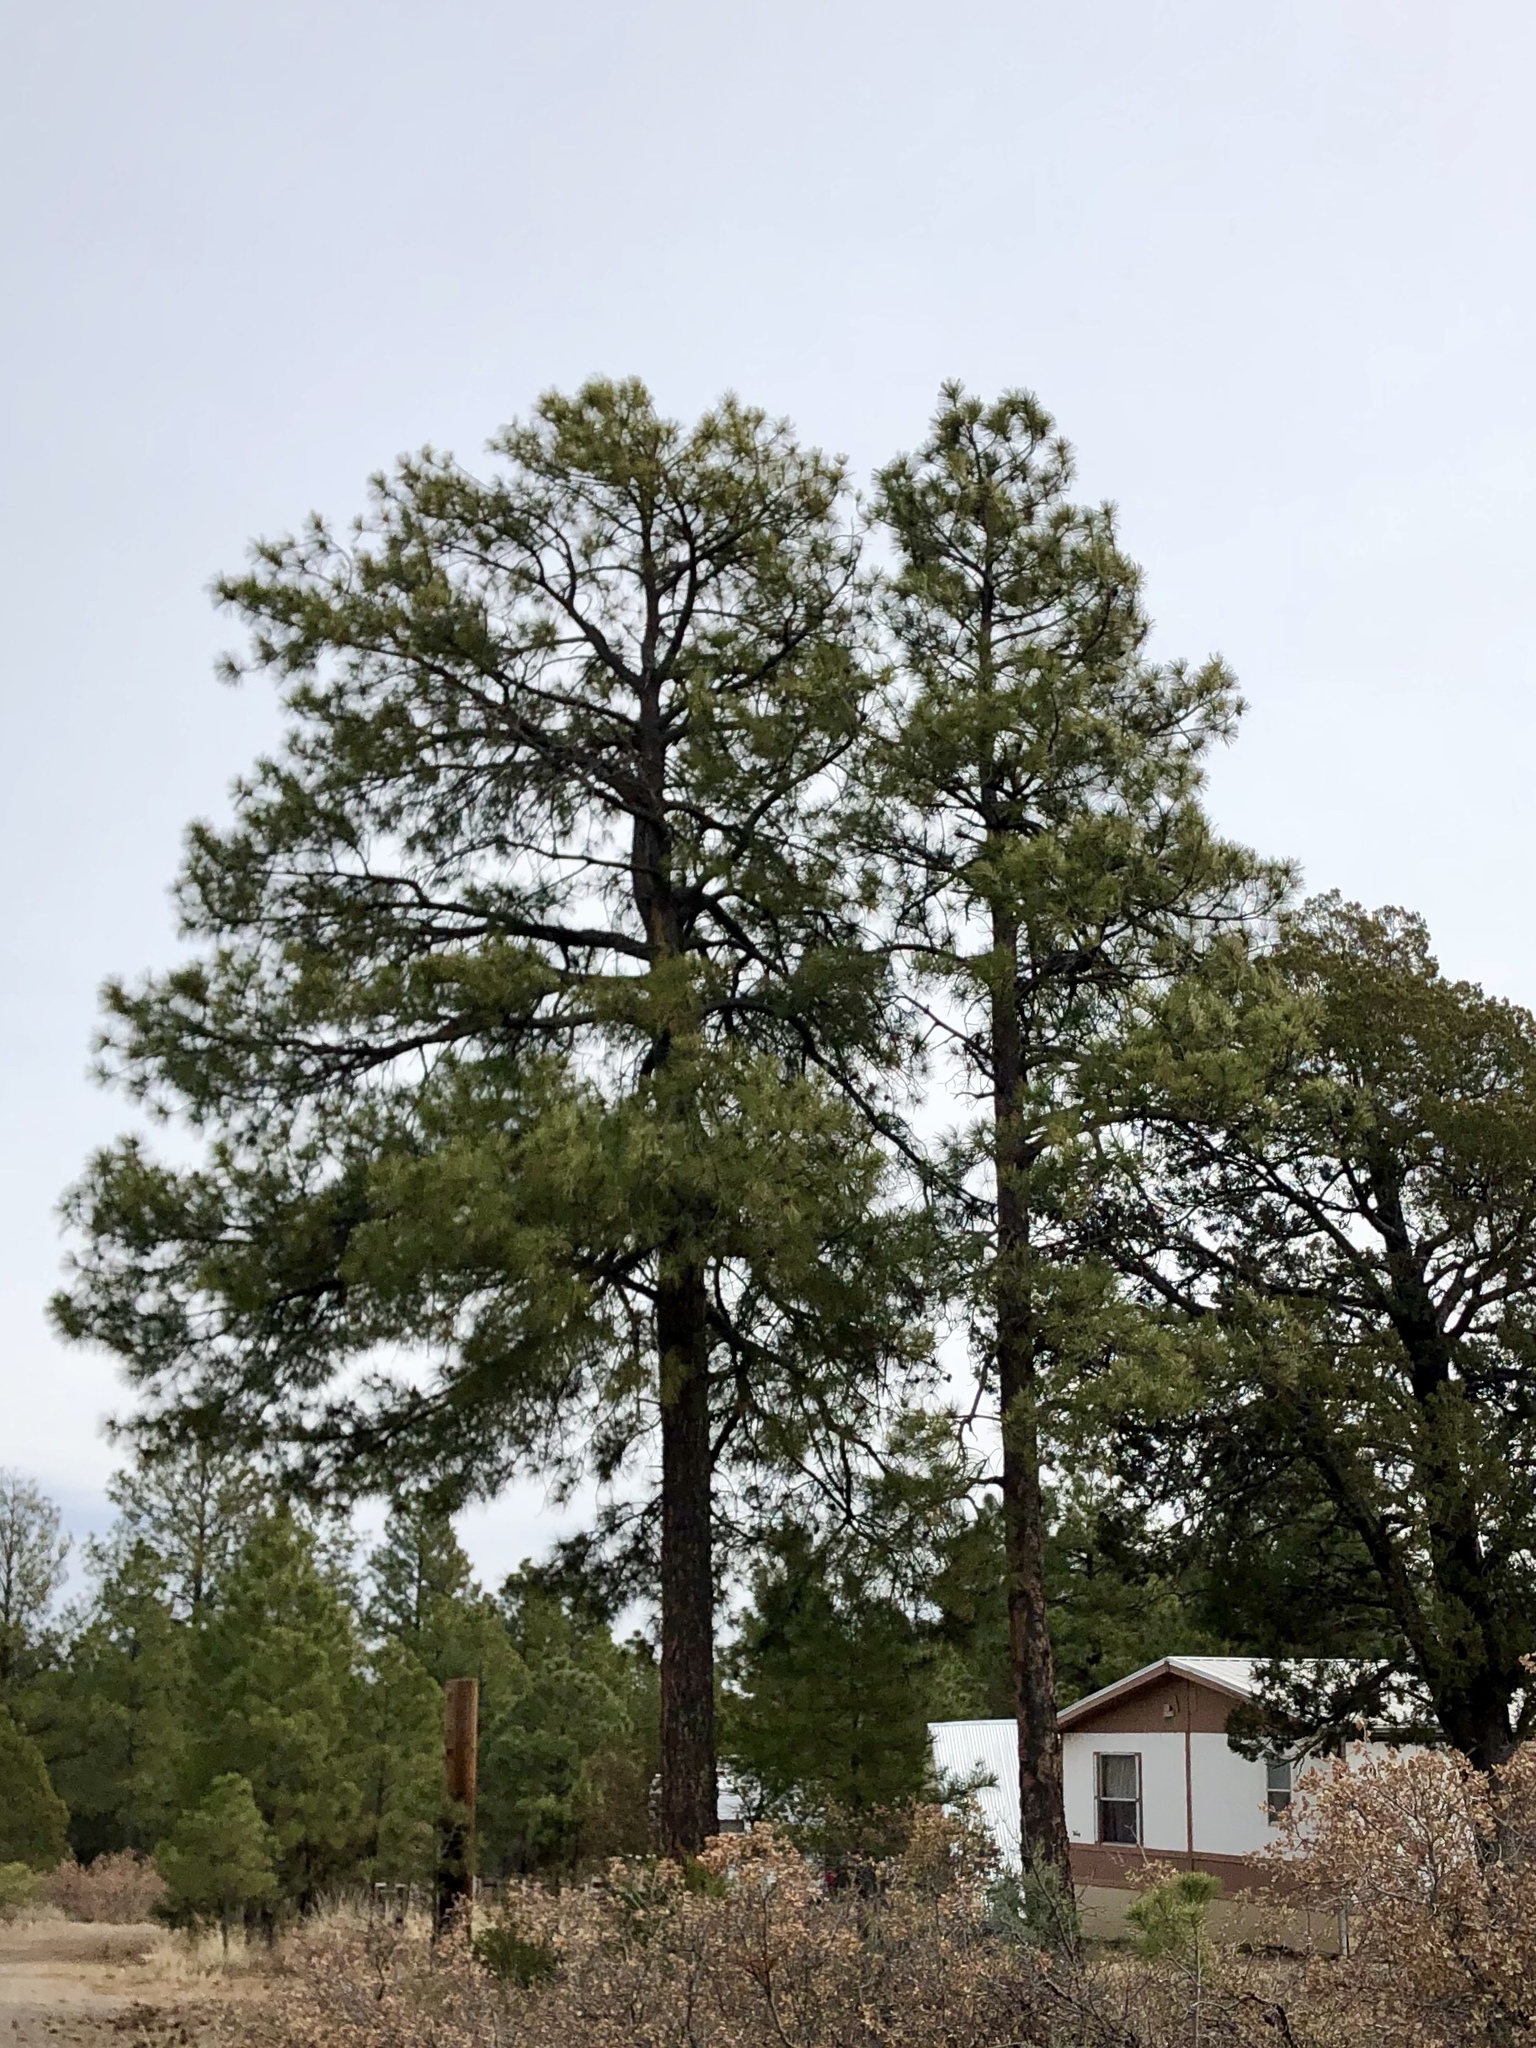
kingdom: Plantae
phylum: Tracheophyta
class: Pinopsida
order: Pinales
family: Pinaceae
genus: Pinus
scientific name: Pinus ponderosa
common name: Western yellow-pine
